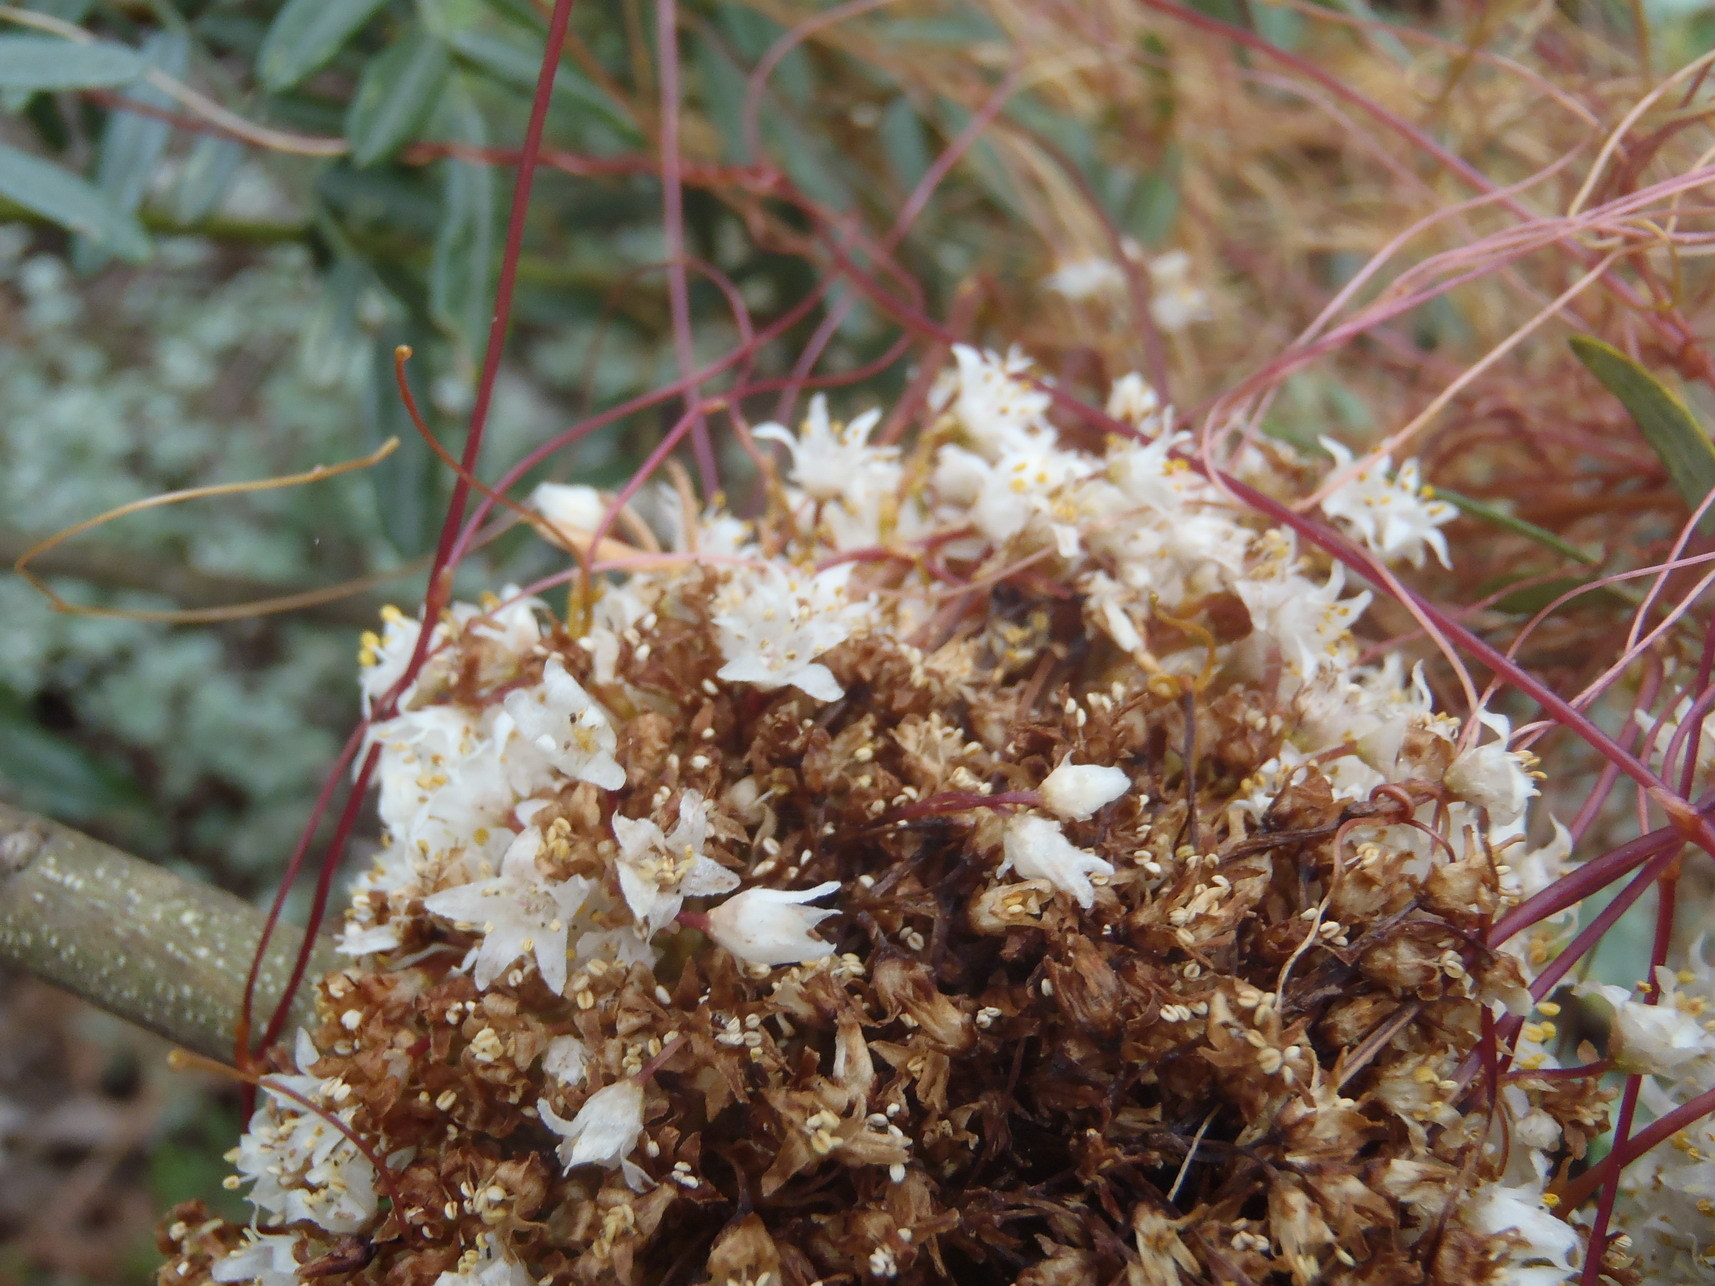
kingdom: Plantae
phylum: Tracheophyta
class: Magnoliopsida
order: Solanales
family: Convolvulaceae
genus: Cuscuta
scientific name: Cuscuta africana
